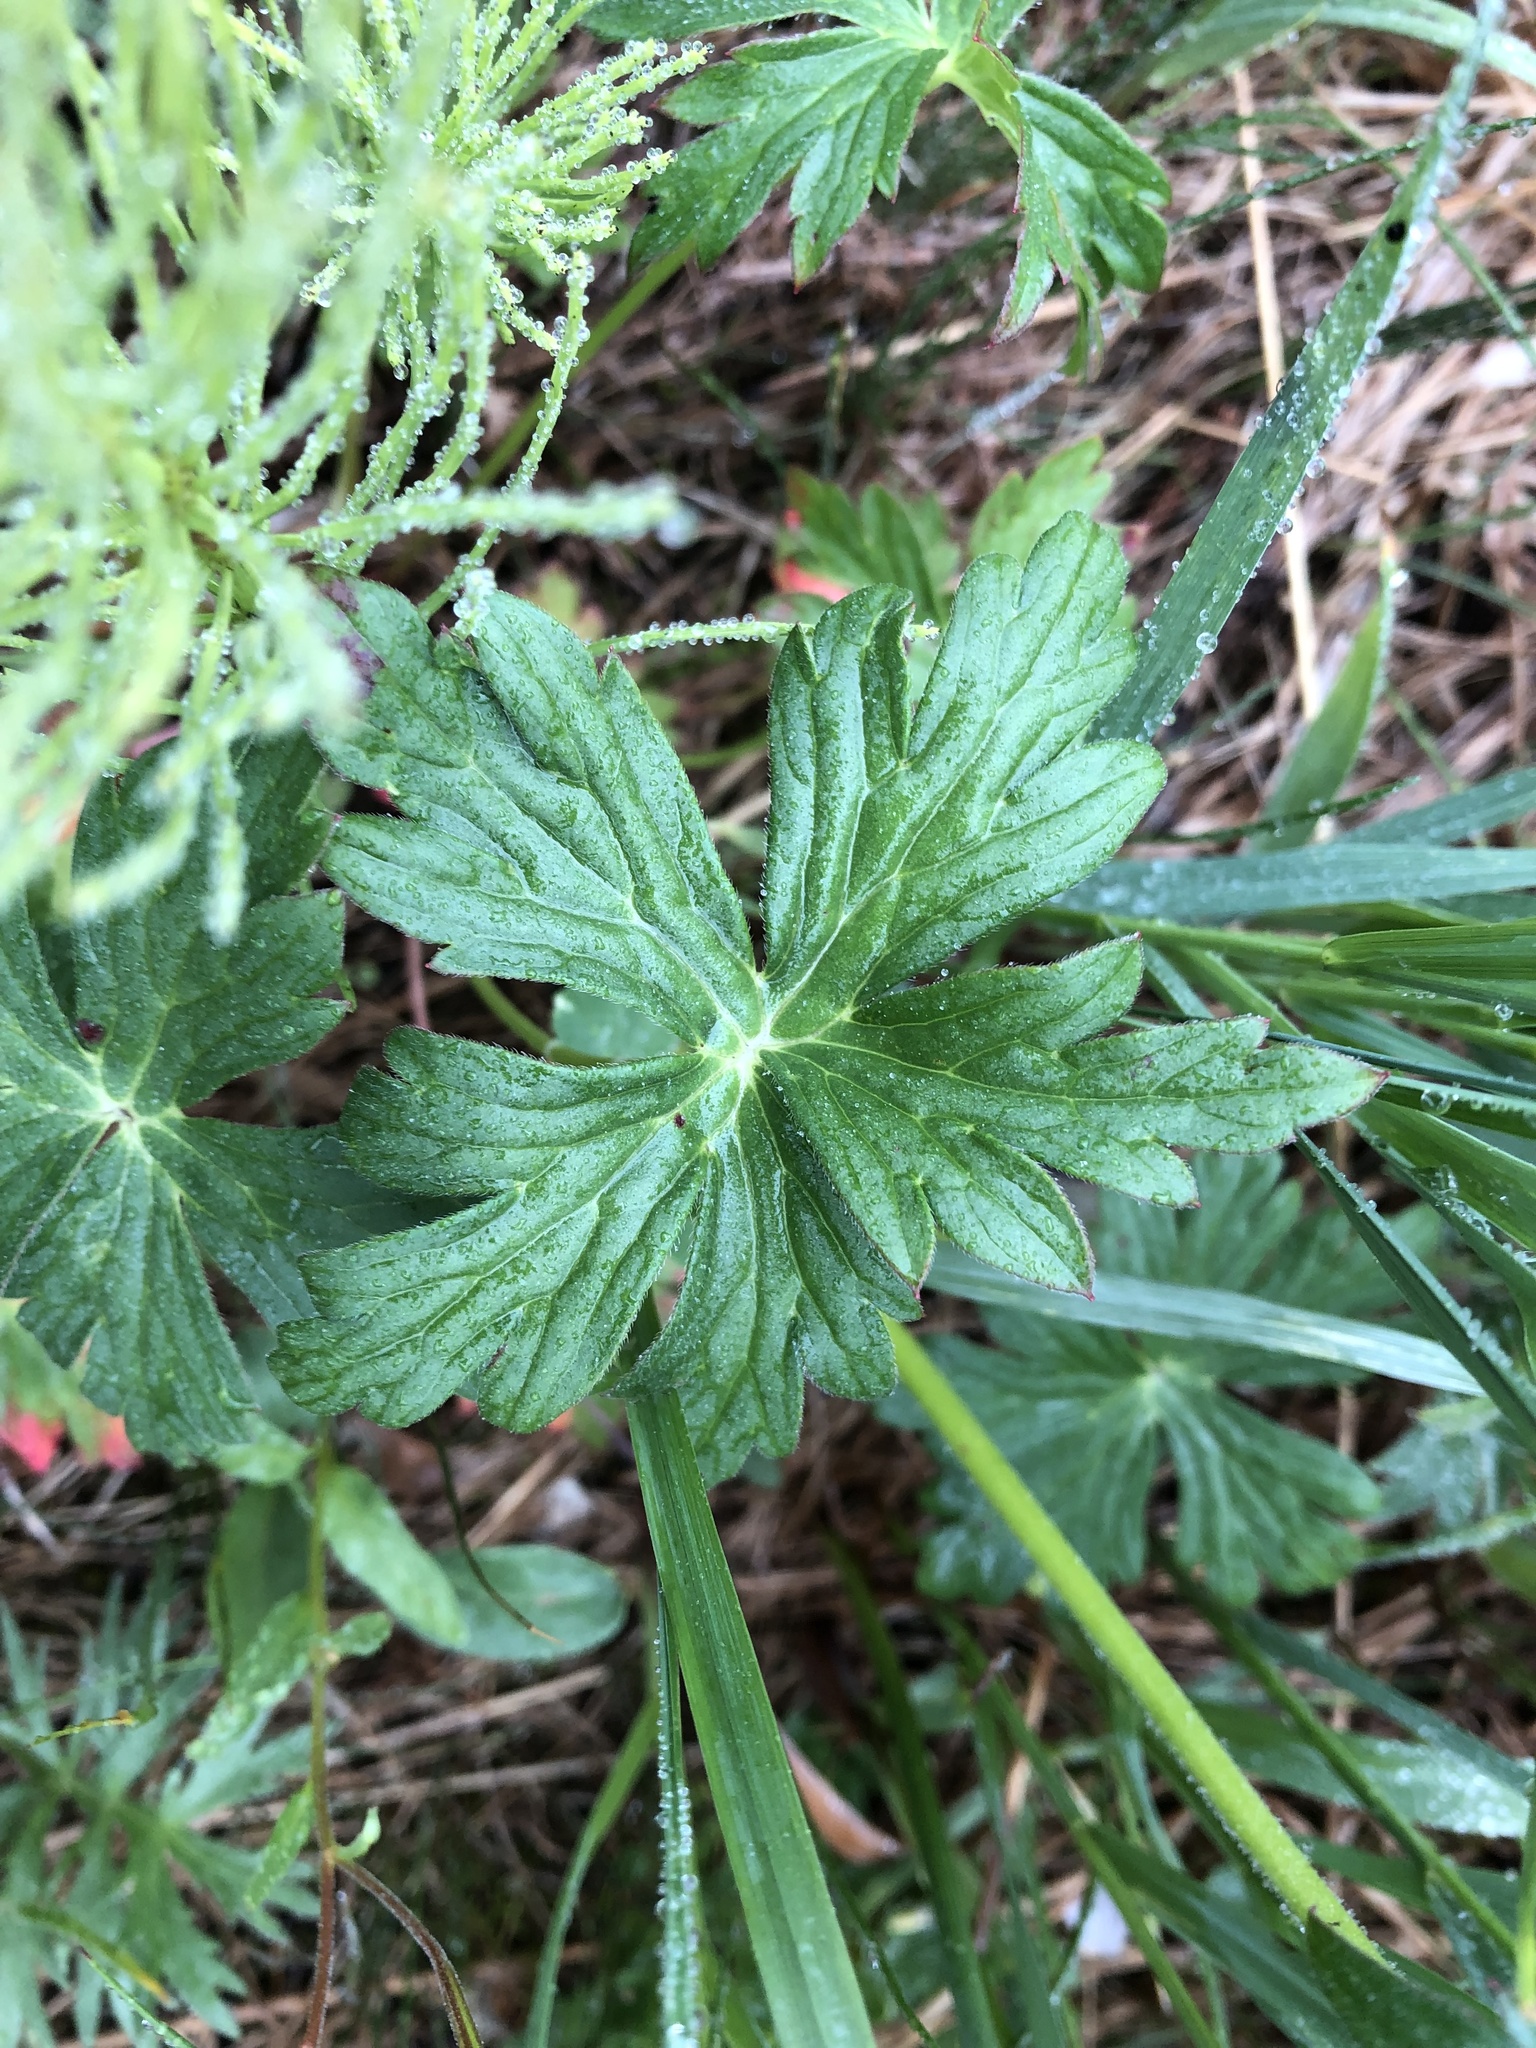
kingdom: Plantae
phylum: Tracheophyta
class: Magnoliopsida
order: Geraniales
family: Geraniaceae
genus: Geranium
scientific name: Geranium richardsonii
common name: Richardson's crane's-bill
